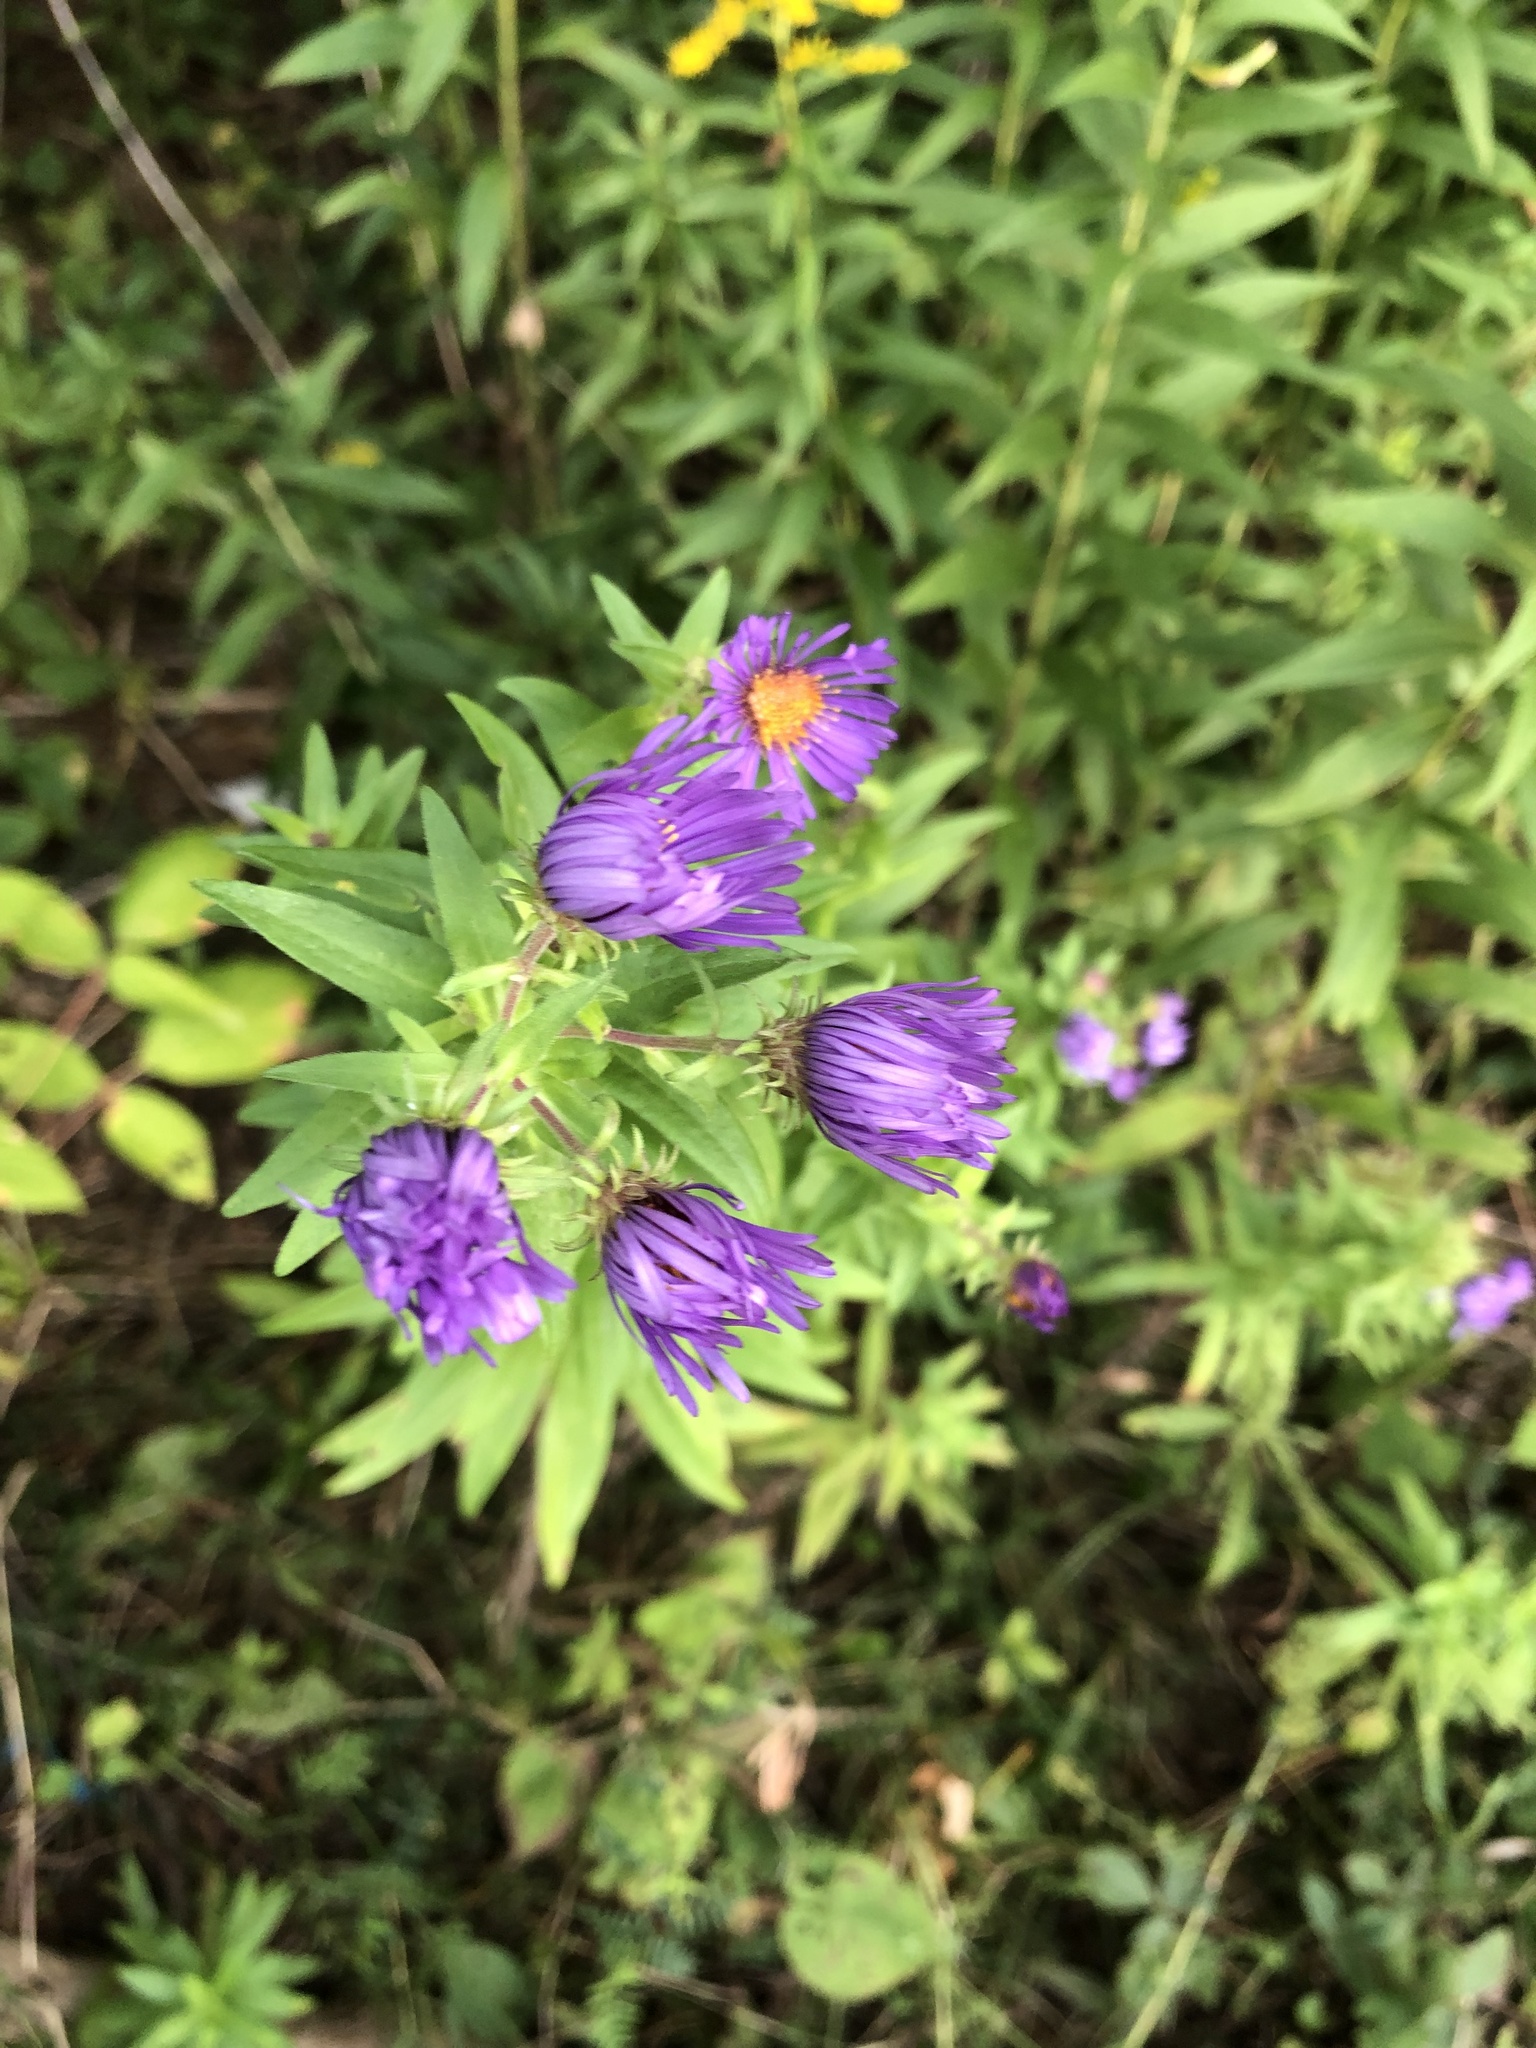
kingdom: Plantae
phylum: Tracheophyta
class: Magnoliopsida
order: Asterales
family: Asteraceae
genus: Symphyotrichum
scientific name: Symphyotrichum novae-angliae
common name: Michaelmas daisy
